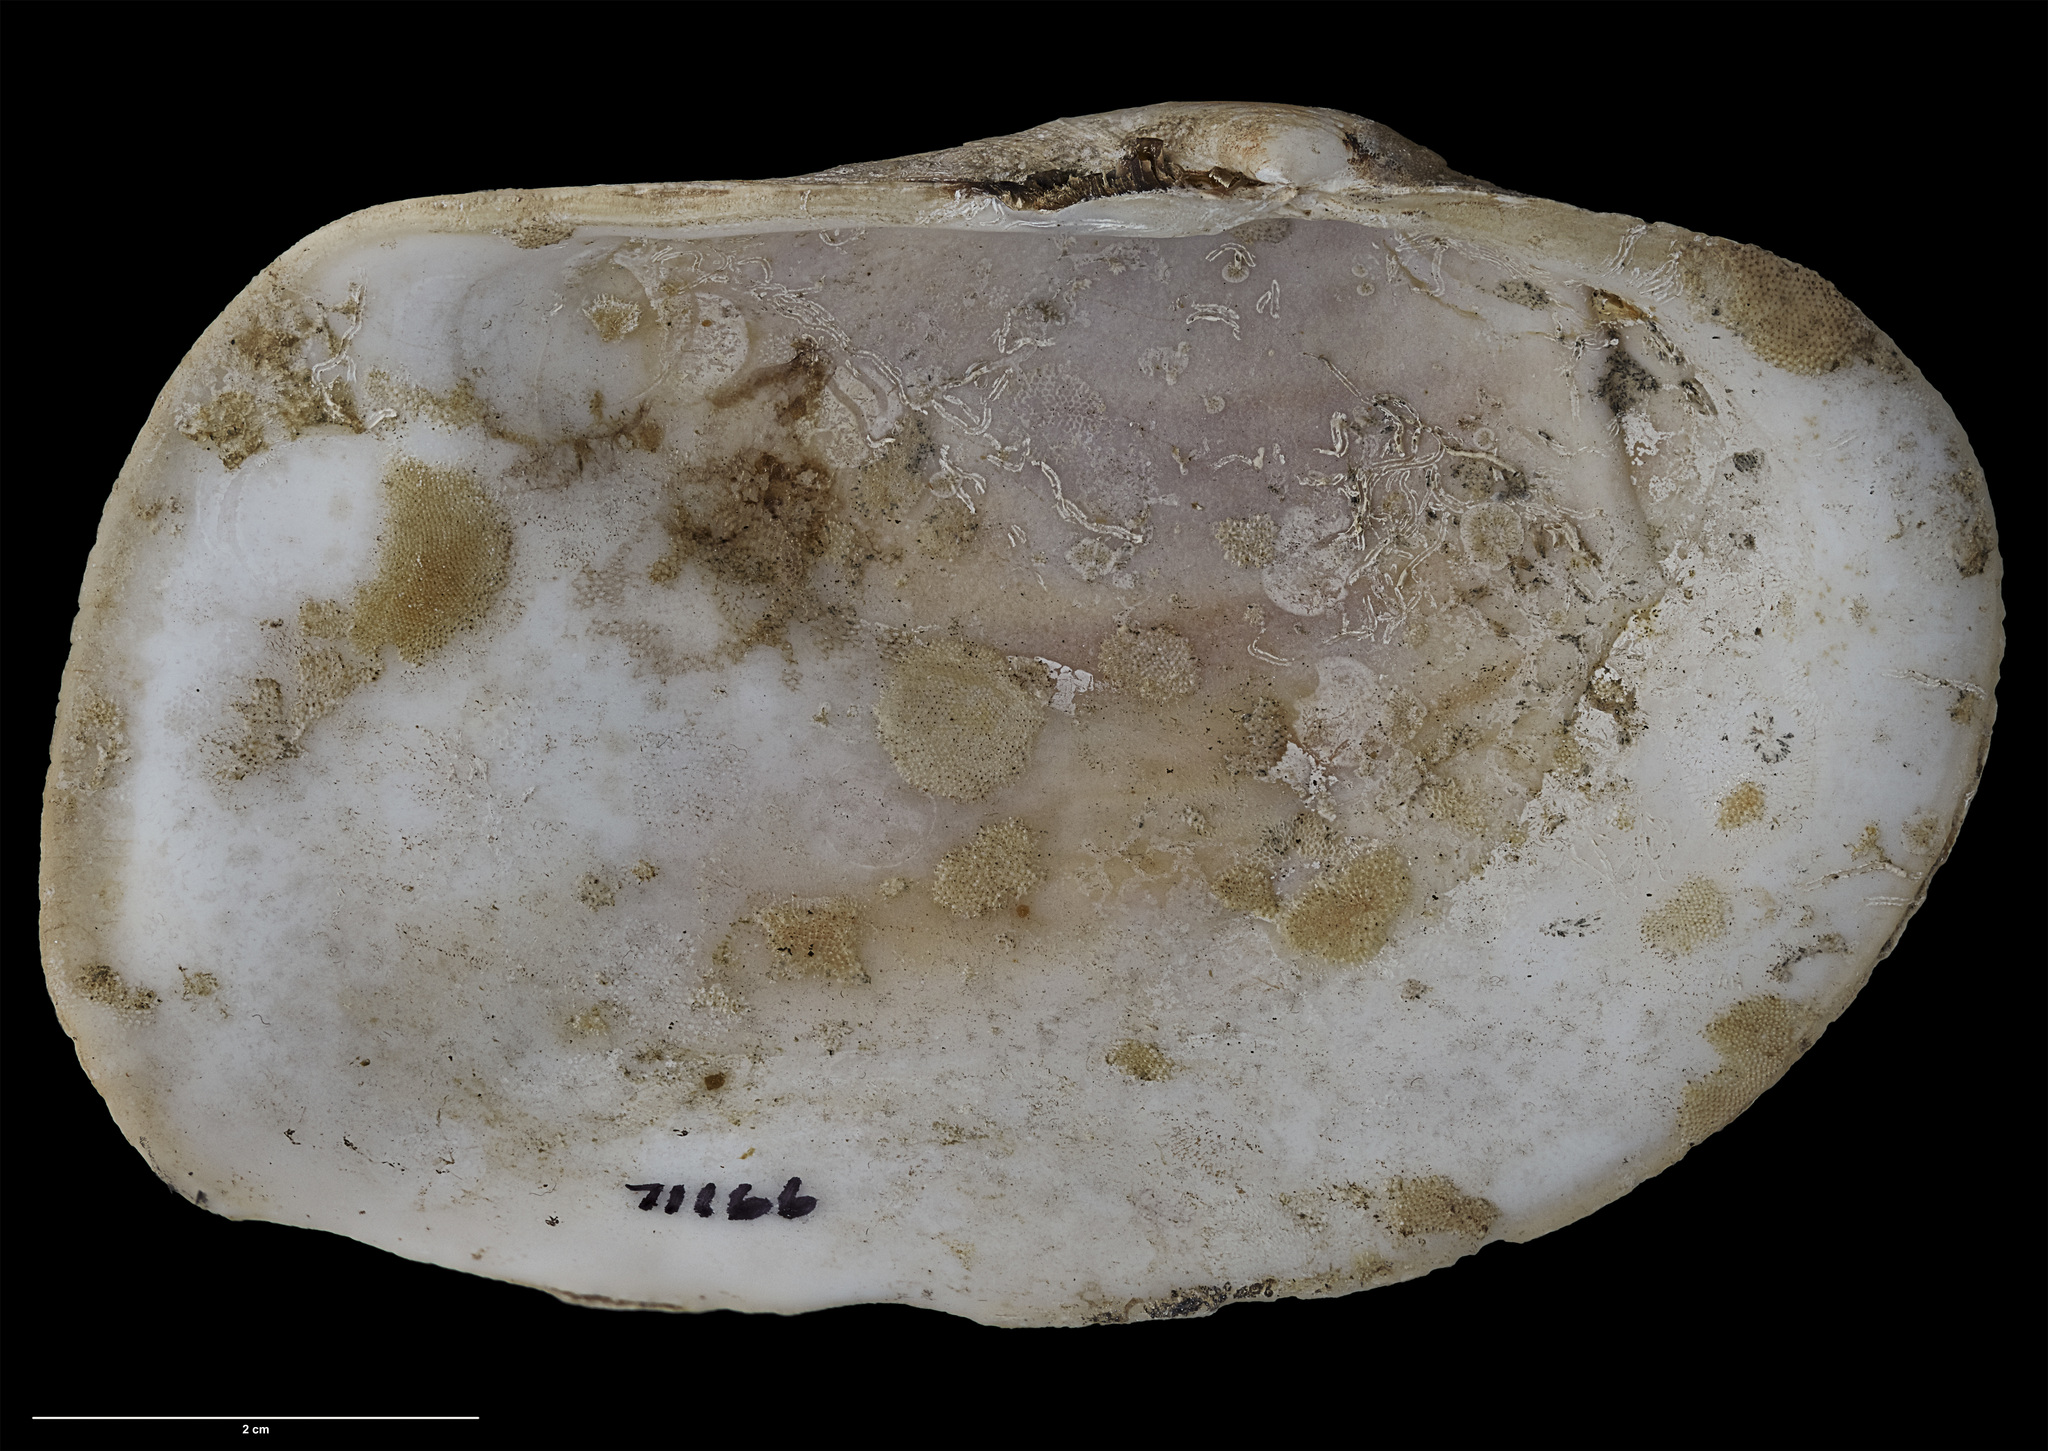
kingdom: Animalia
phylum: Mollusca
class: Bivalvia
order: Adapedonta
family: Hiatellidae
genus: Panopea
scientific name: Panopea smithae
